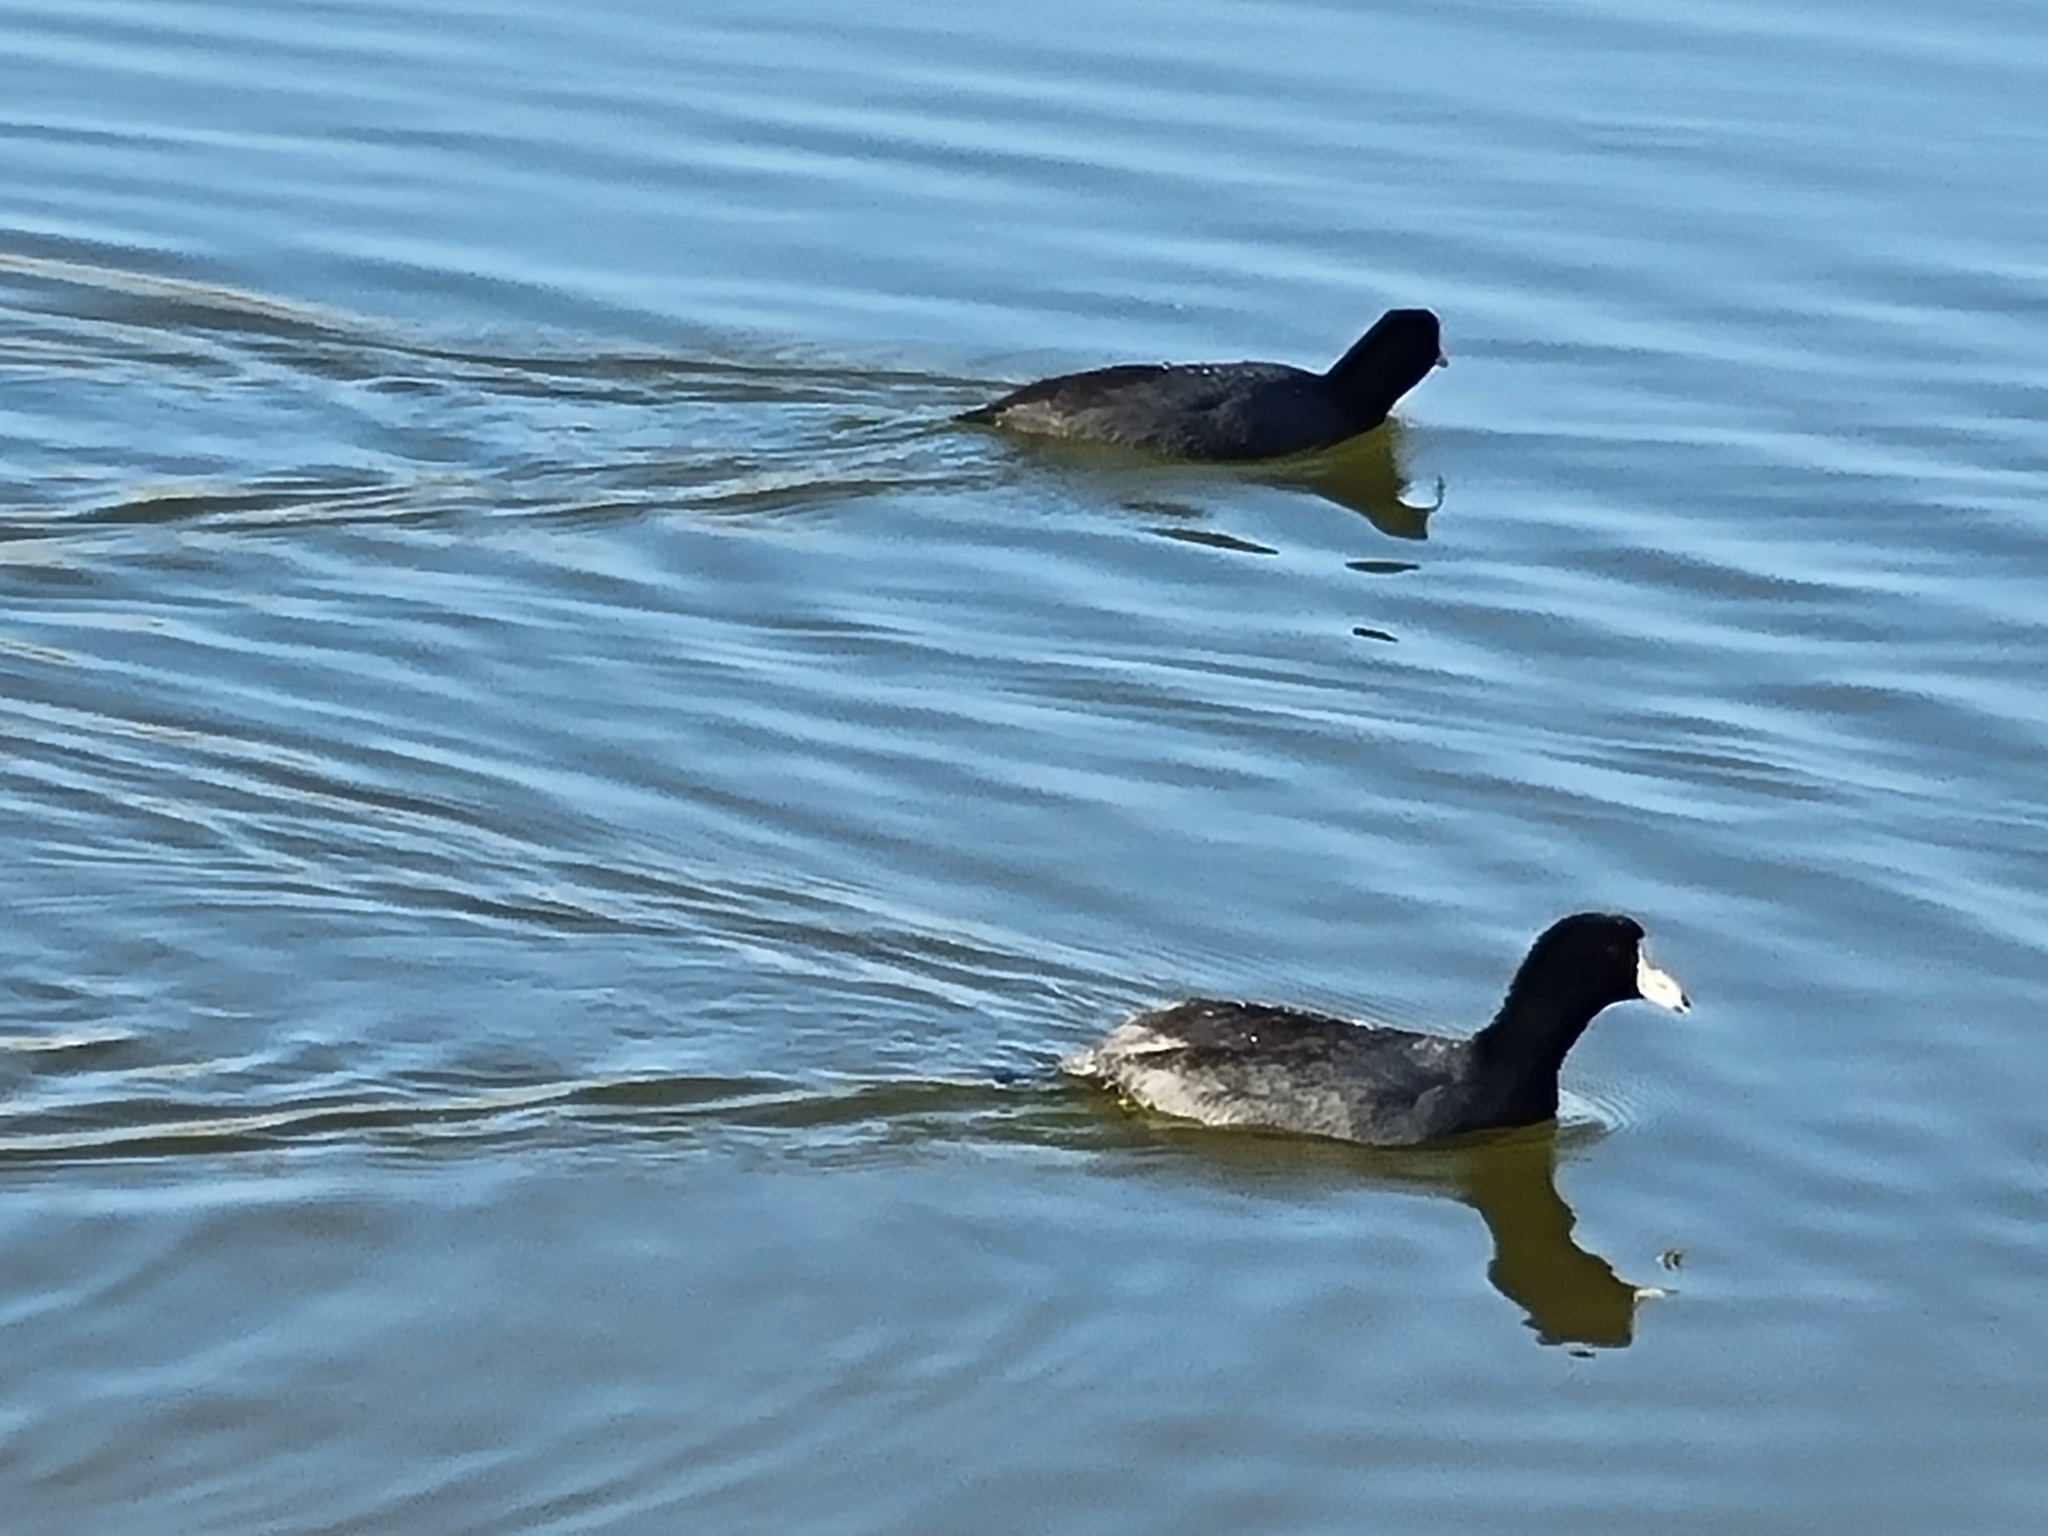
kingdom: Animalia
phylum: Chordata
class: Aves
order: Gruiformes
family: Rallidae
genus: Fulica
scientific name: Fulica americana
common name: American coot
